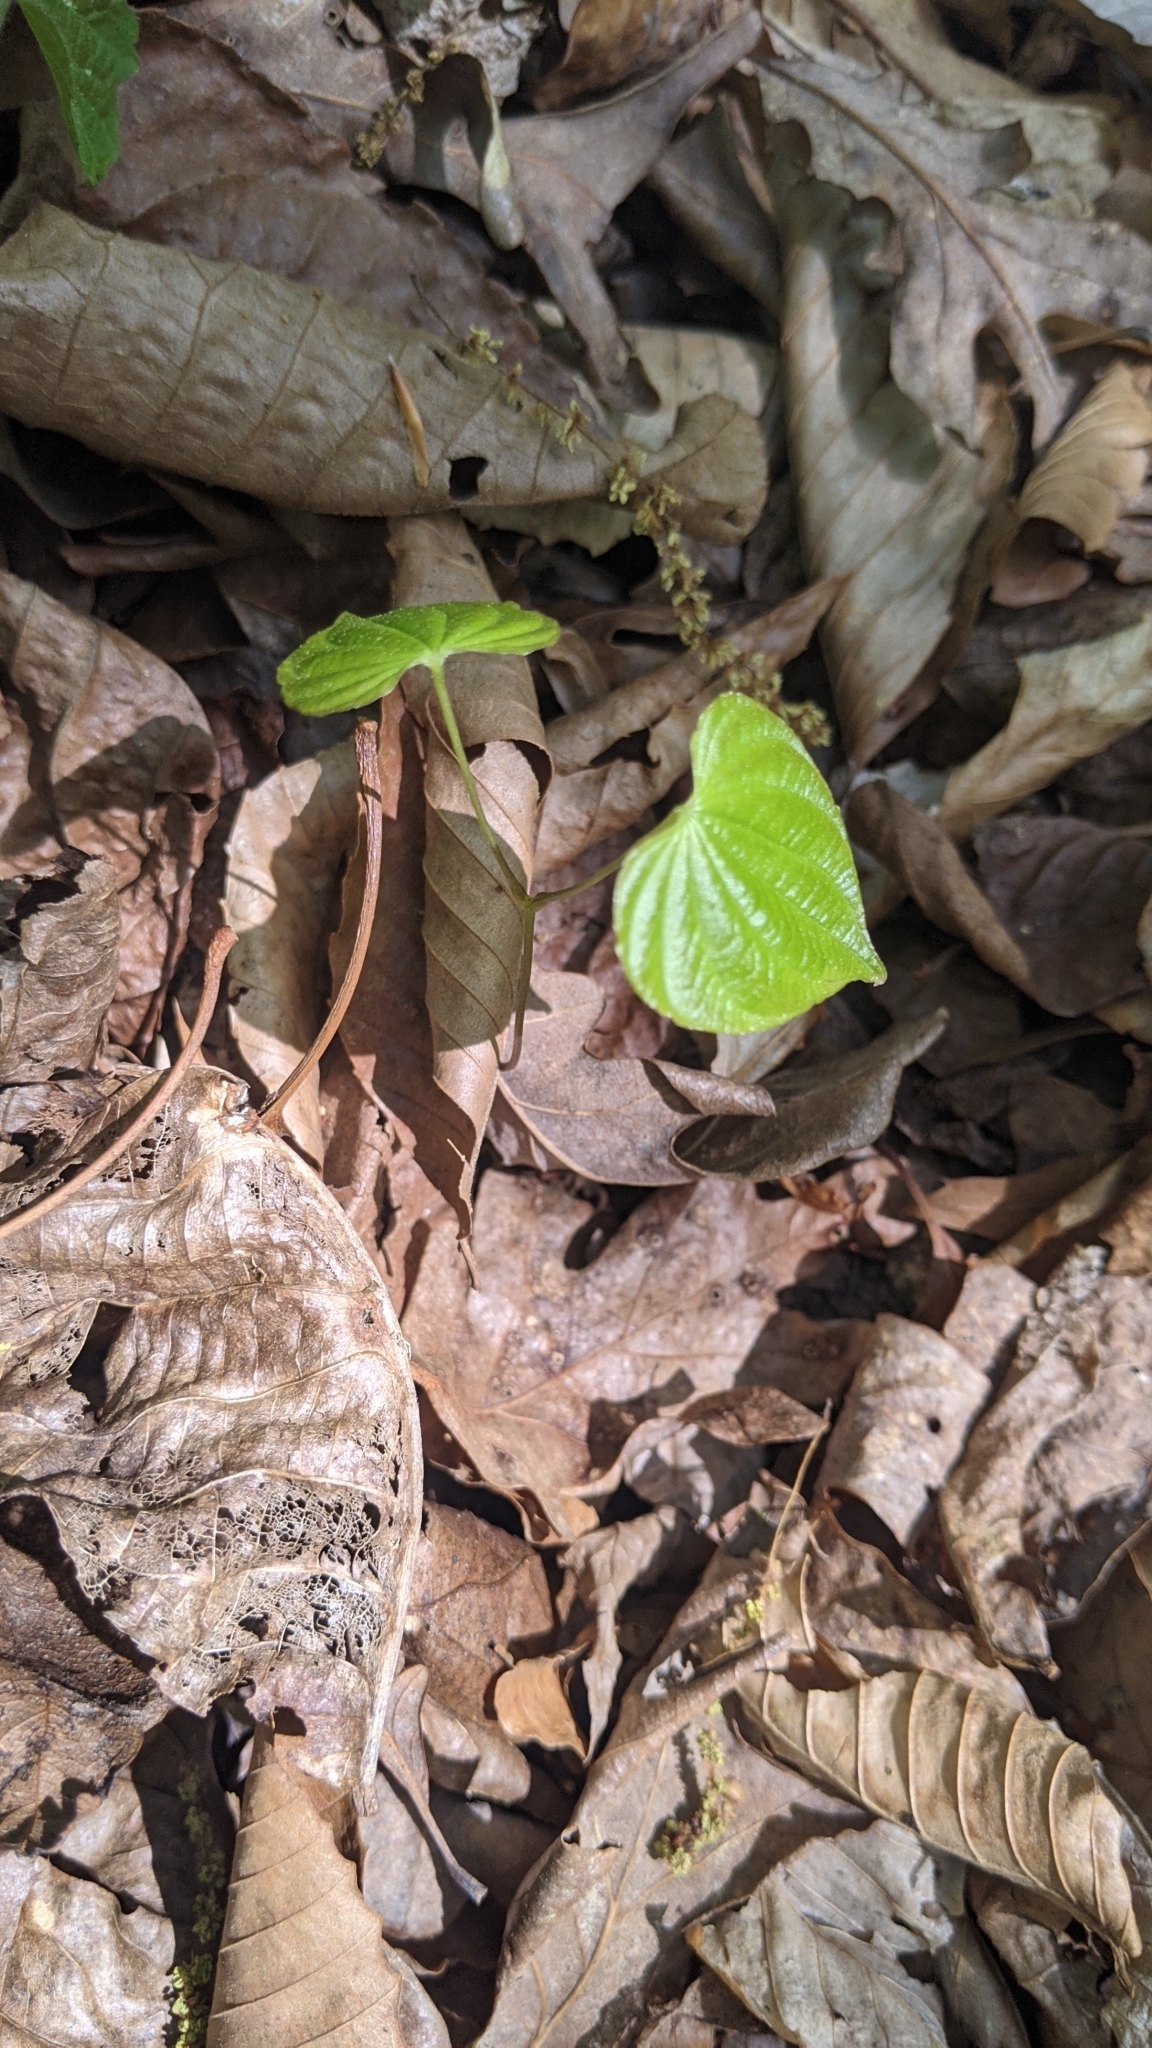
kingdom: Plantae
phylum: Tracheophyta
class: Liliopsida
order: Dioscoreales
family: Dioscoreaceae
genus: Dioscorea
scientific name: Dioscorea villosa
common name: Wild yam
